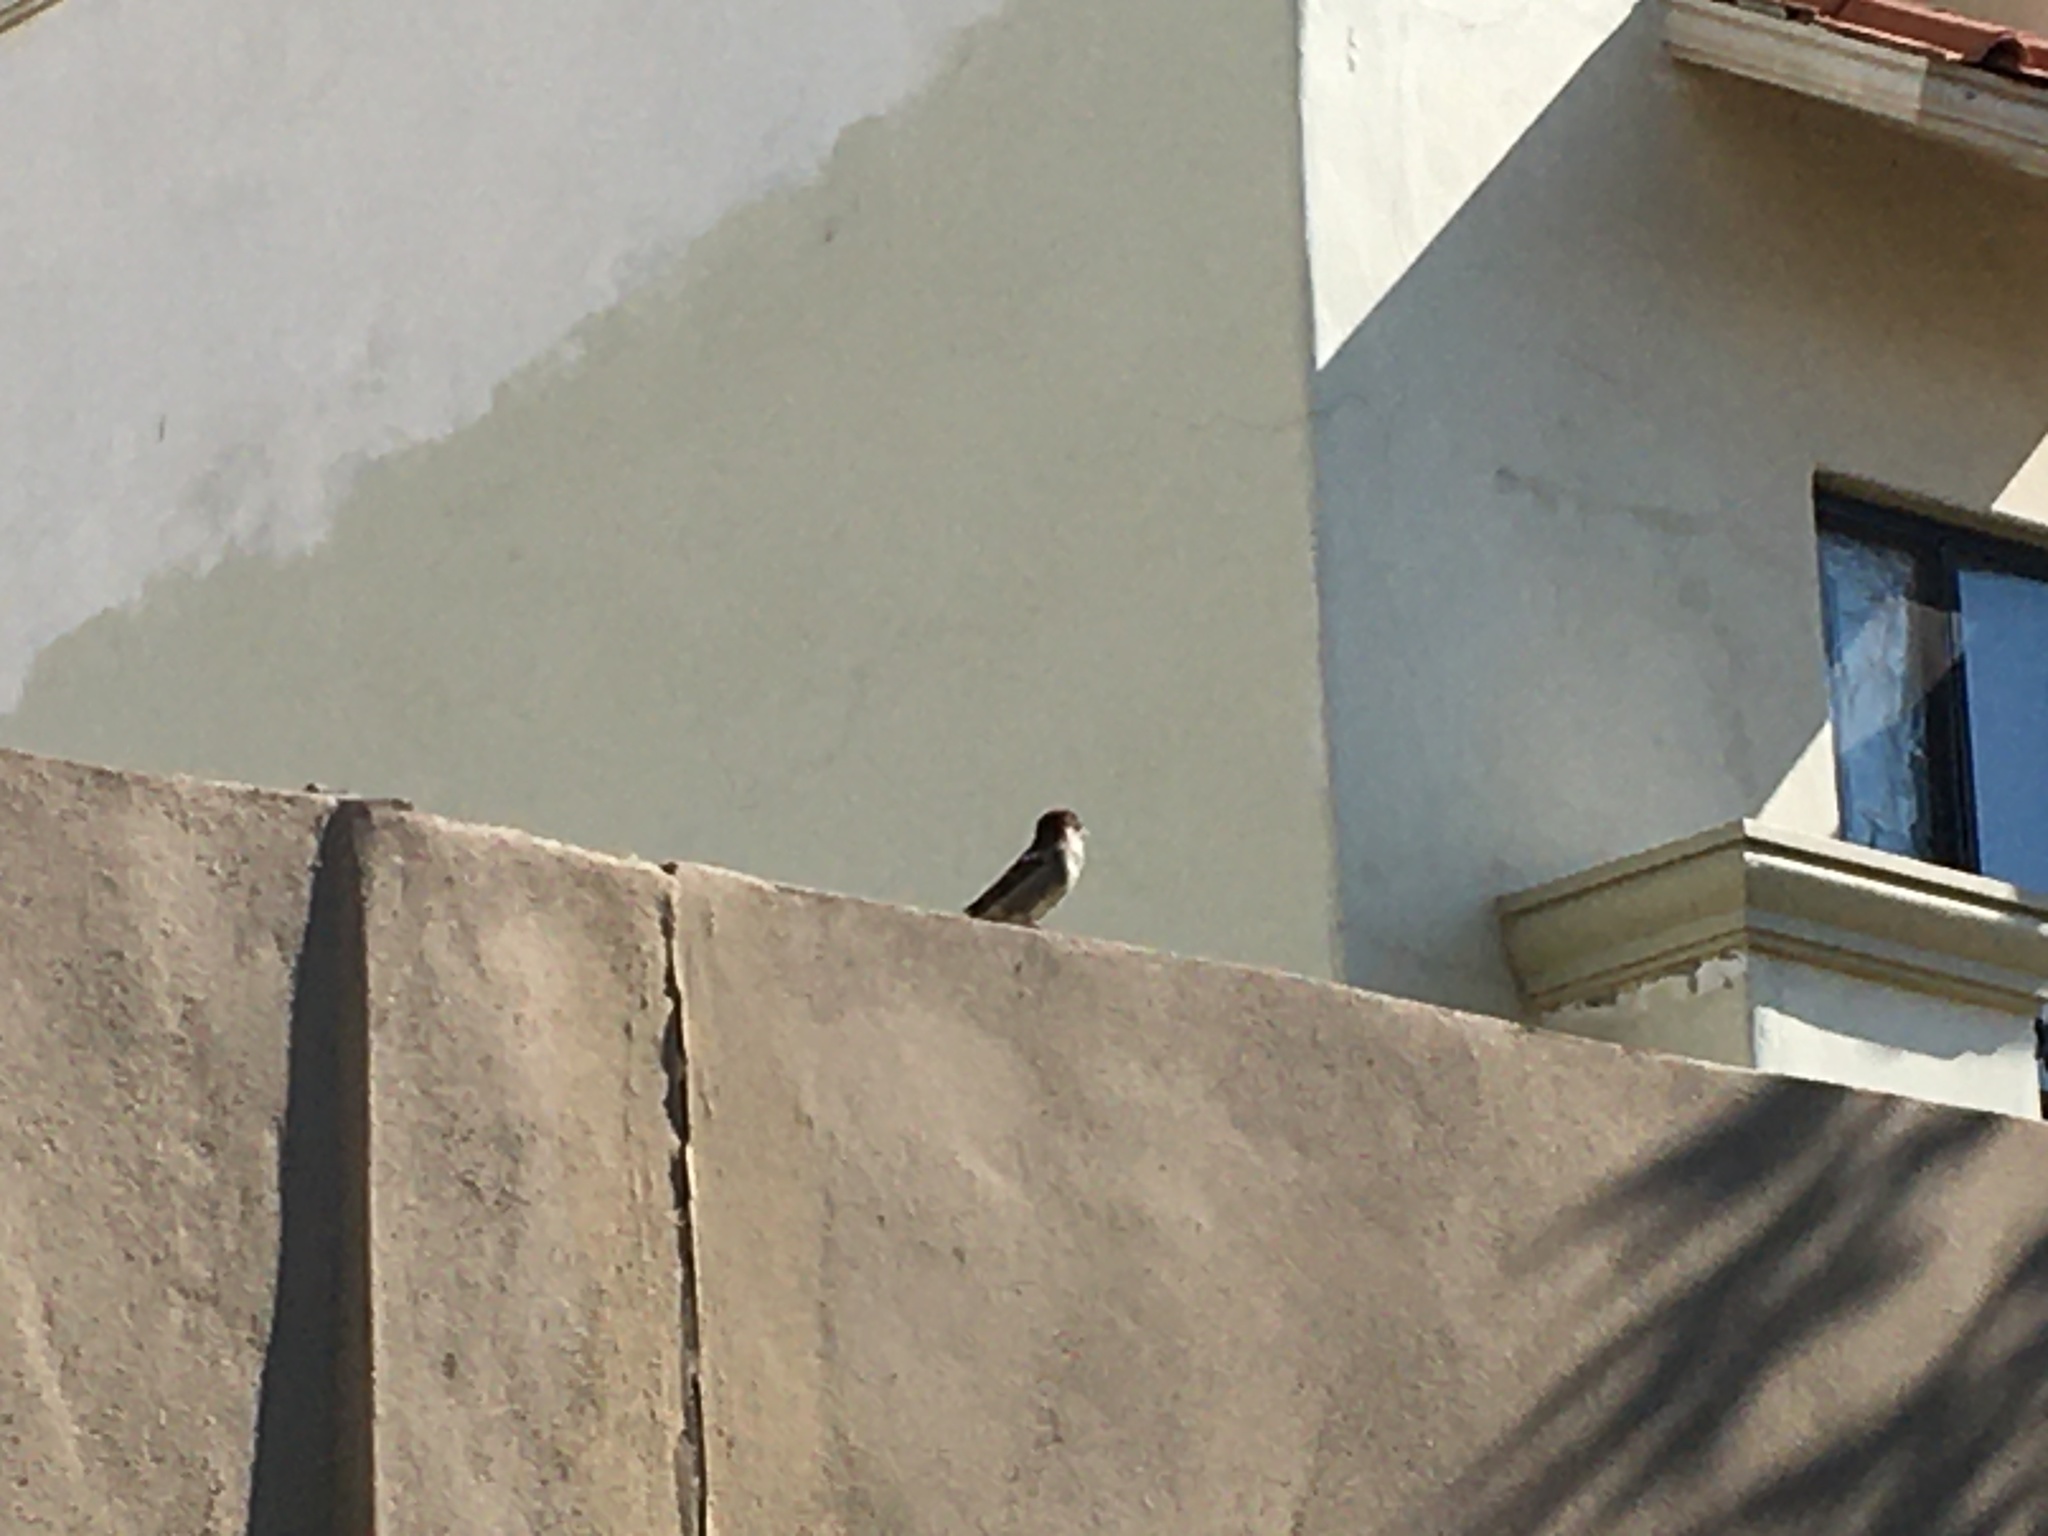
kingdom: Animalia
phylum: Chordata
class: Aves
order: Passeriformes
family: Passeridae
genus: Passer
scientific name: Passer domesticus
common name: House sparrow
